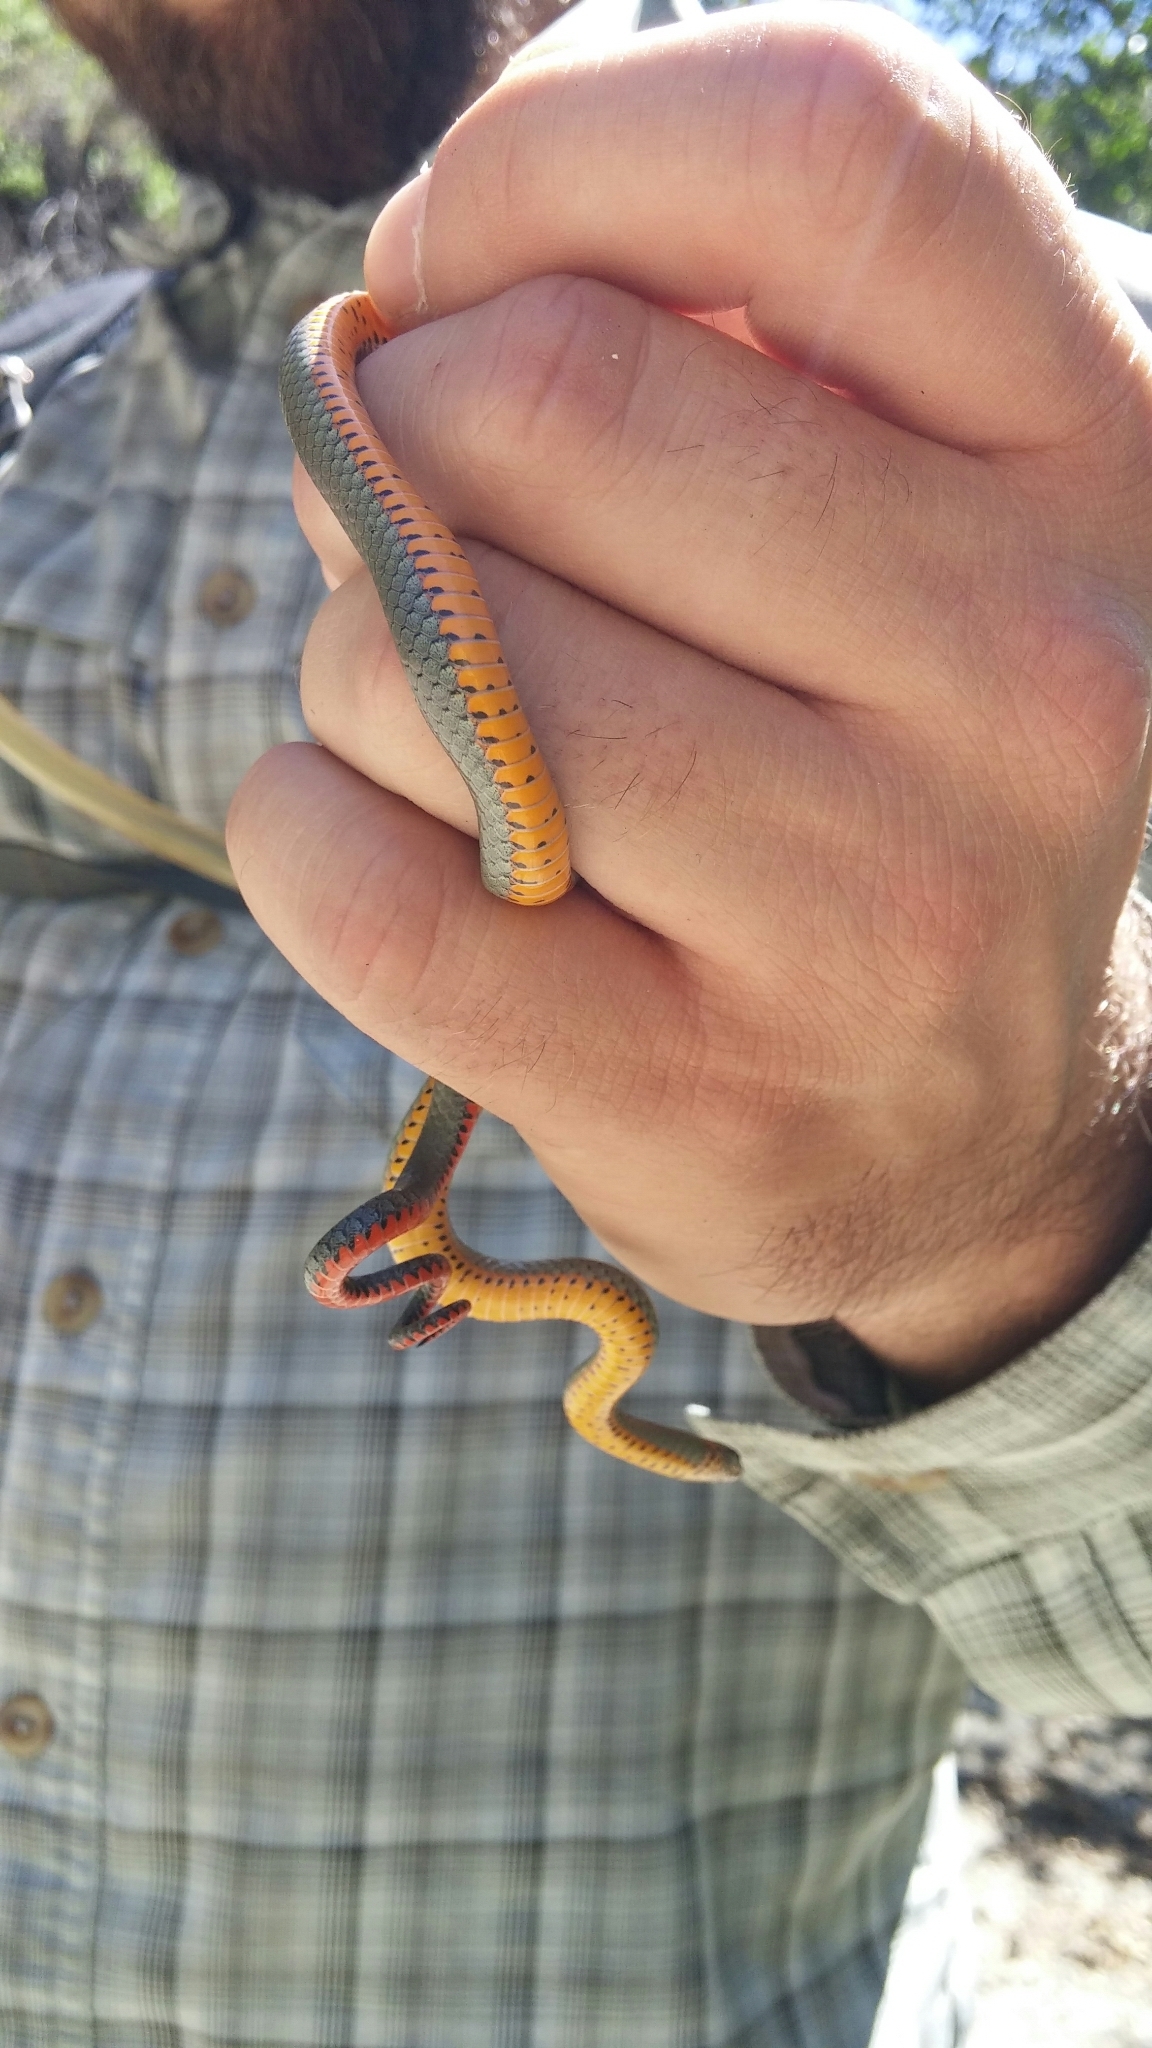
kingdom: Animalia
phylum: Chordata
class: Squamata
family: Colubridae
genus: Diadophis
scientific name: Diadophis punctatus
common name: Ringneck snake
